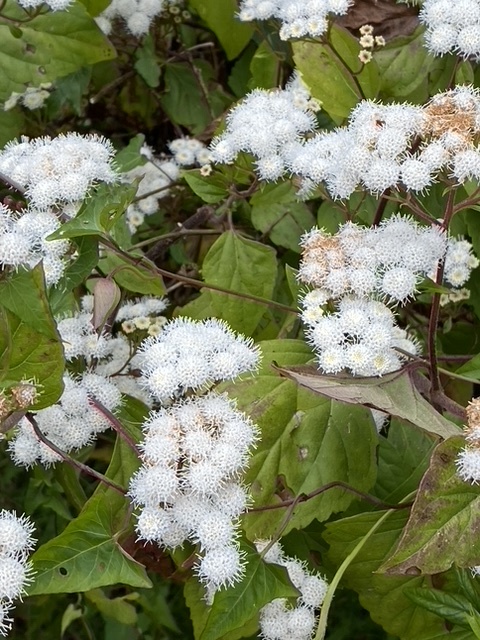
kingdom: Plantae
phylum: Tracheophyta
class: Magnoliopsida
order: Asterales
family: Asteraceae
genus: Ageratina
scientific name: Ageratina adenophora
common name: Sticky snakeroot
